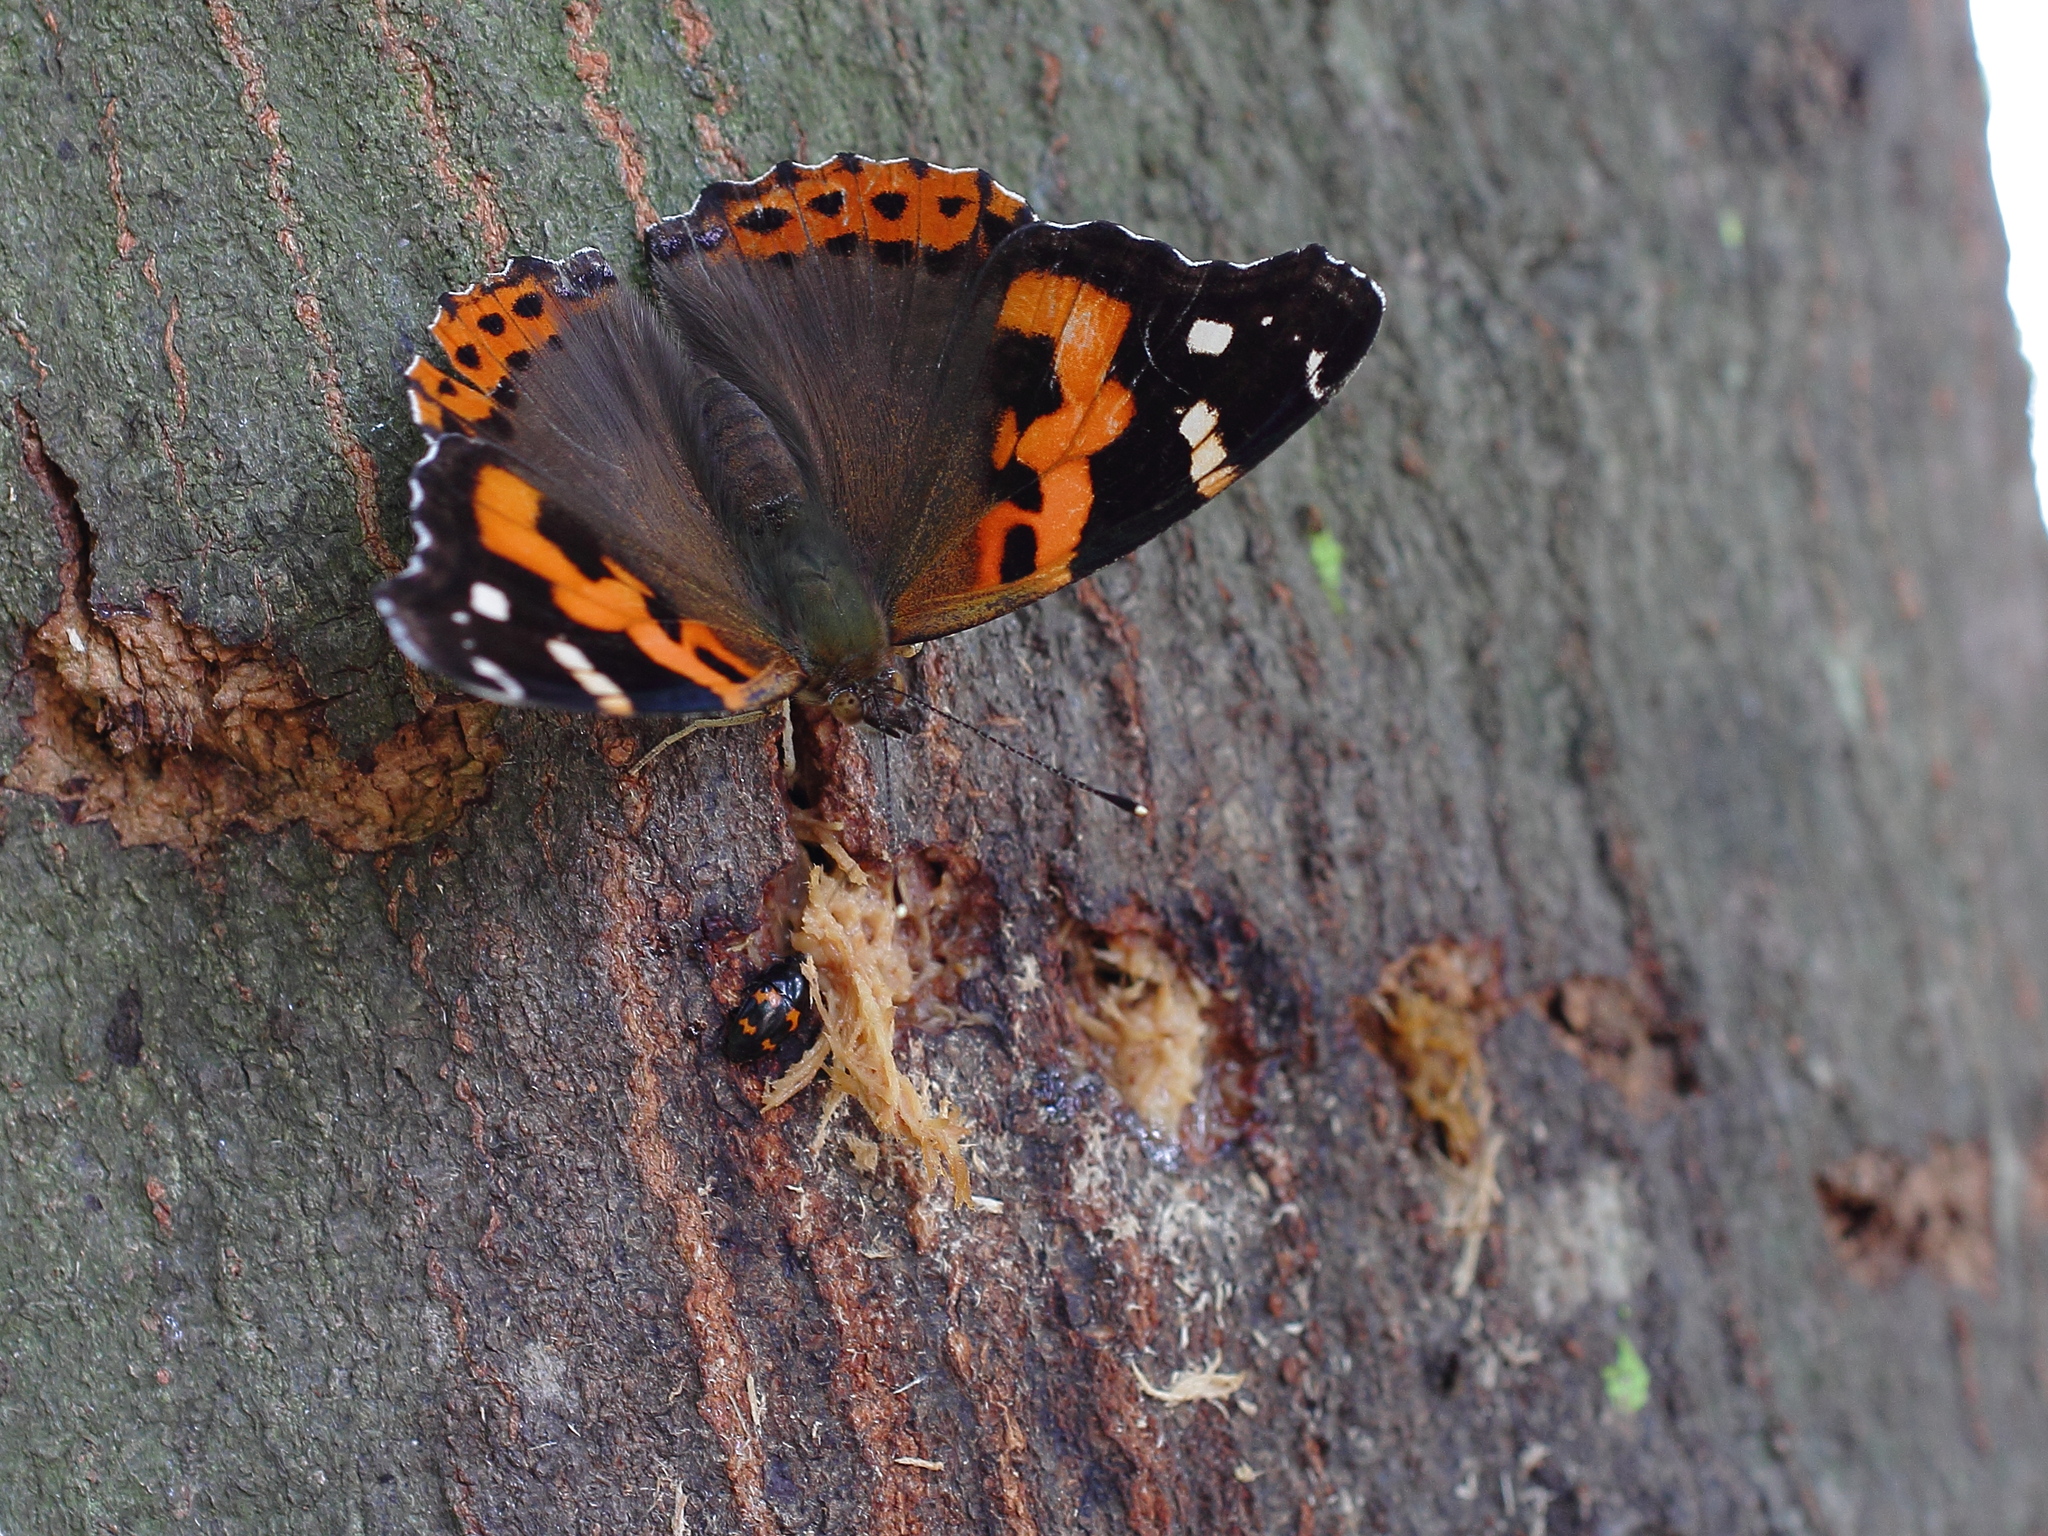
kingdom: Animalia
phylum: Arthropoda
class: Insecta
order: Lepidoptera
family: Nymphalidae
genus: Vanessa
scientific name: Vanessa indica
